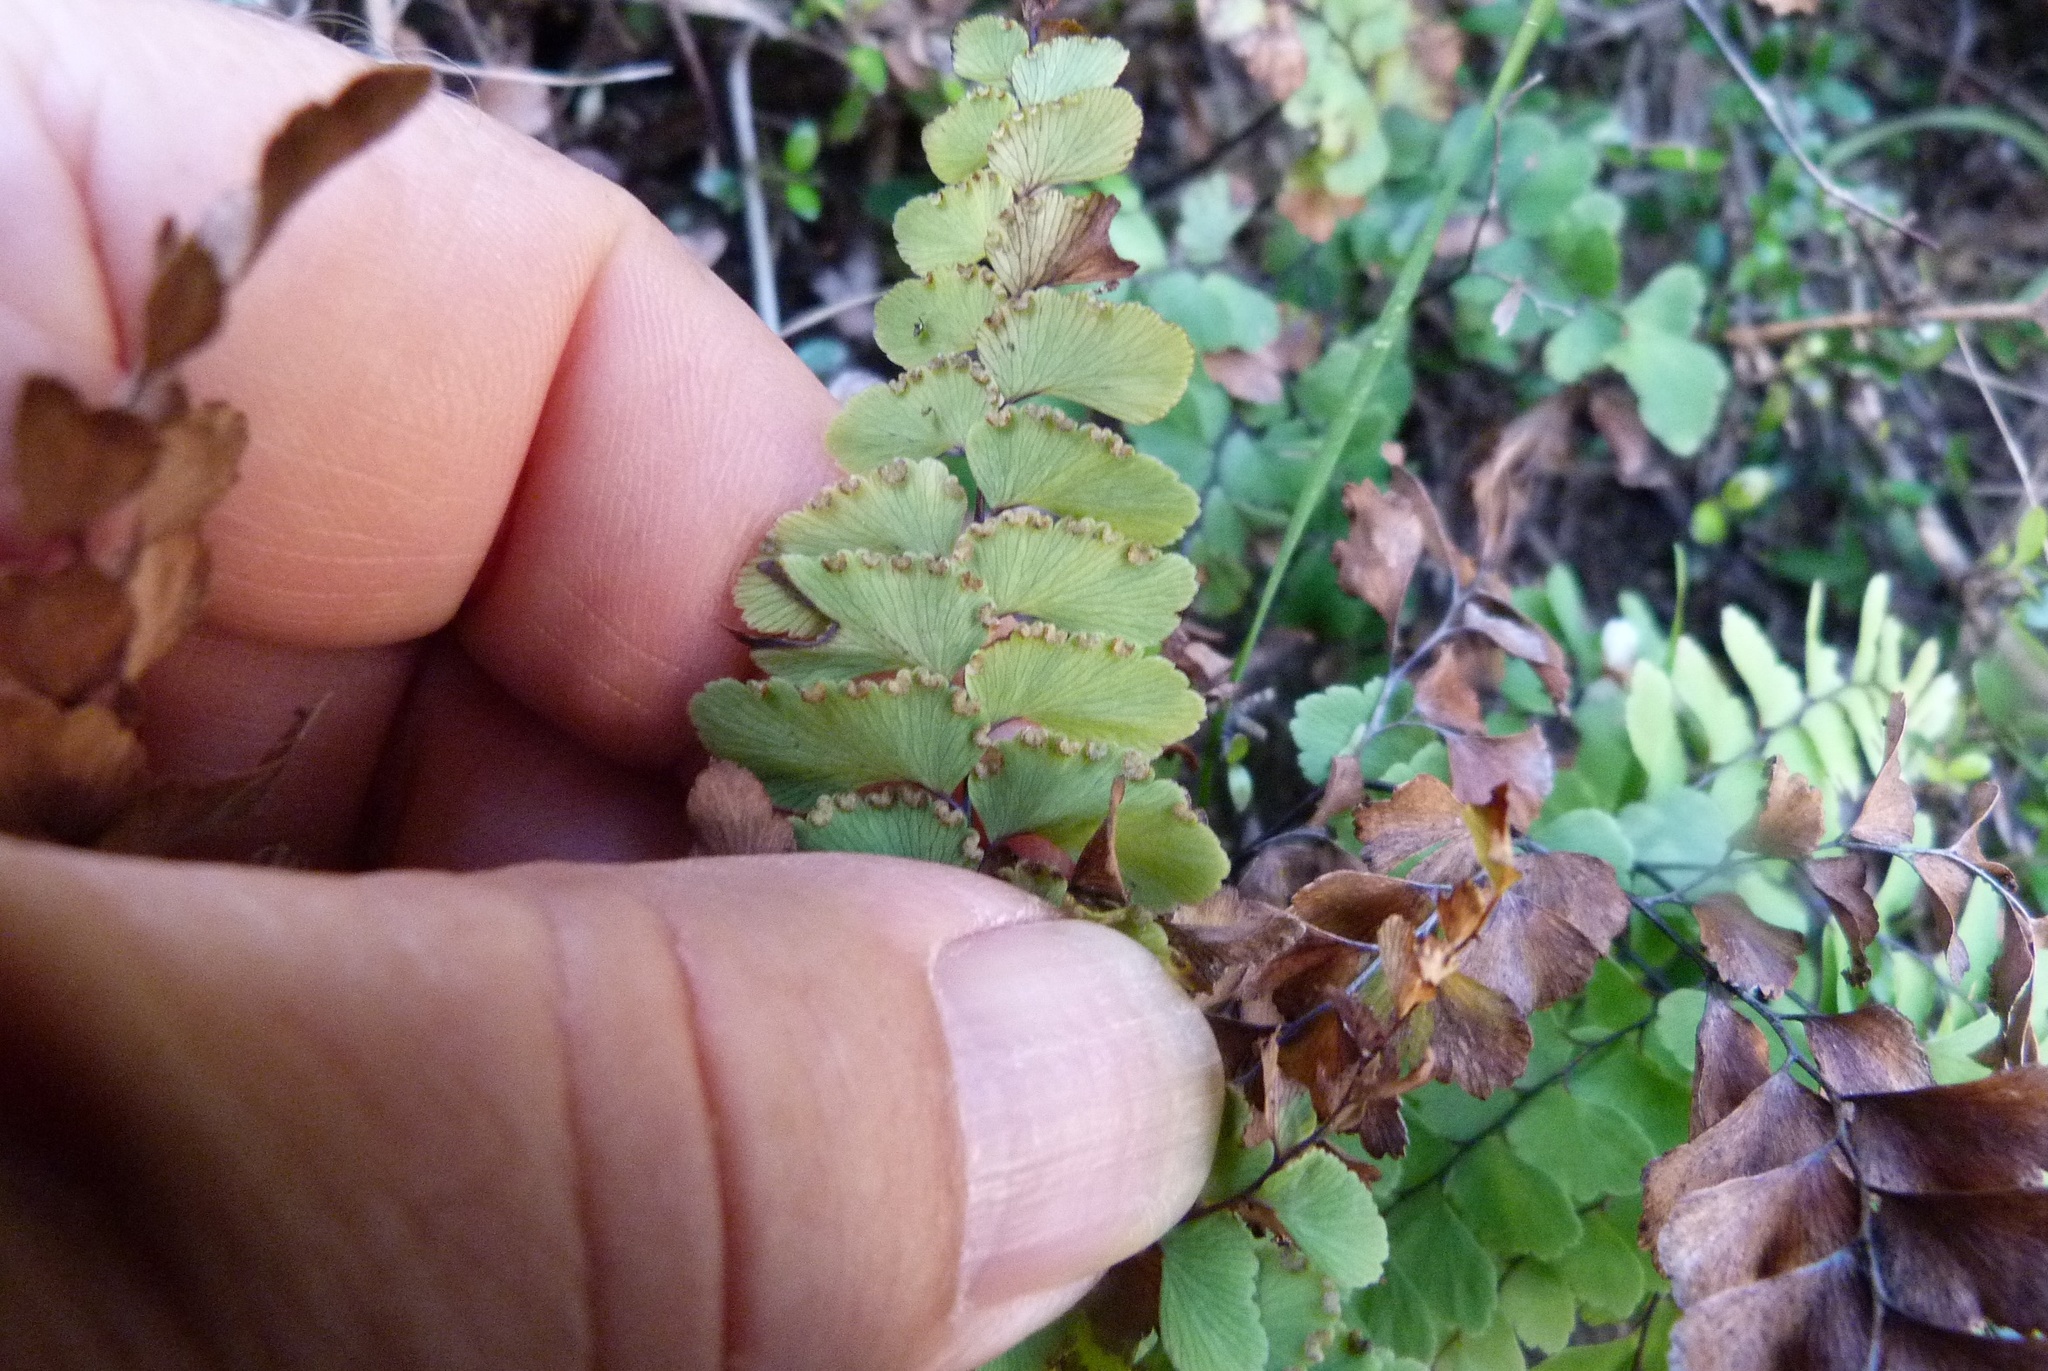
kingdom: Plantae
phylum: Tracheophyta
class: Polypodiopsida
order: Polypodiales
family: Pteridaceae
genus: Adiantum
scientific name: Adiantum cunninghamii
